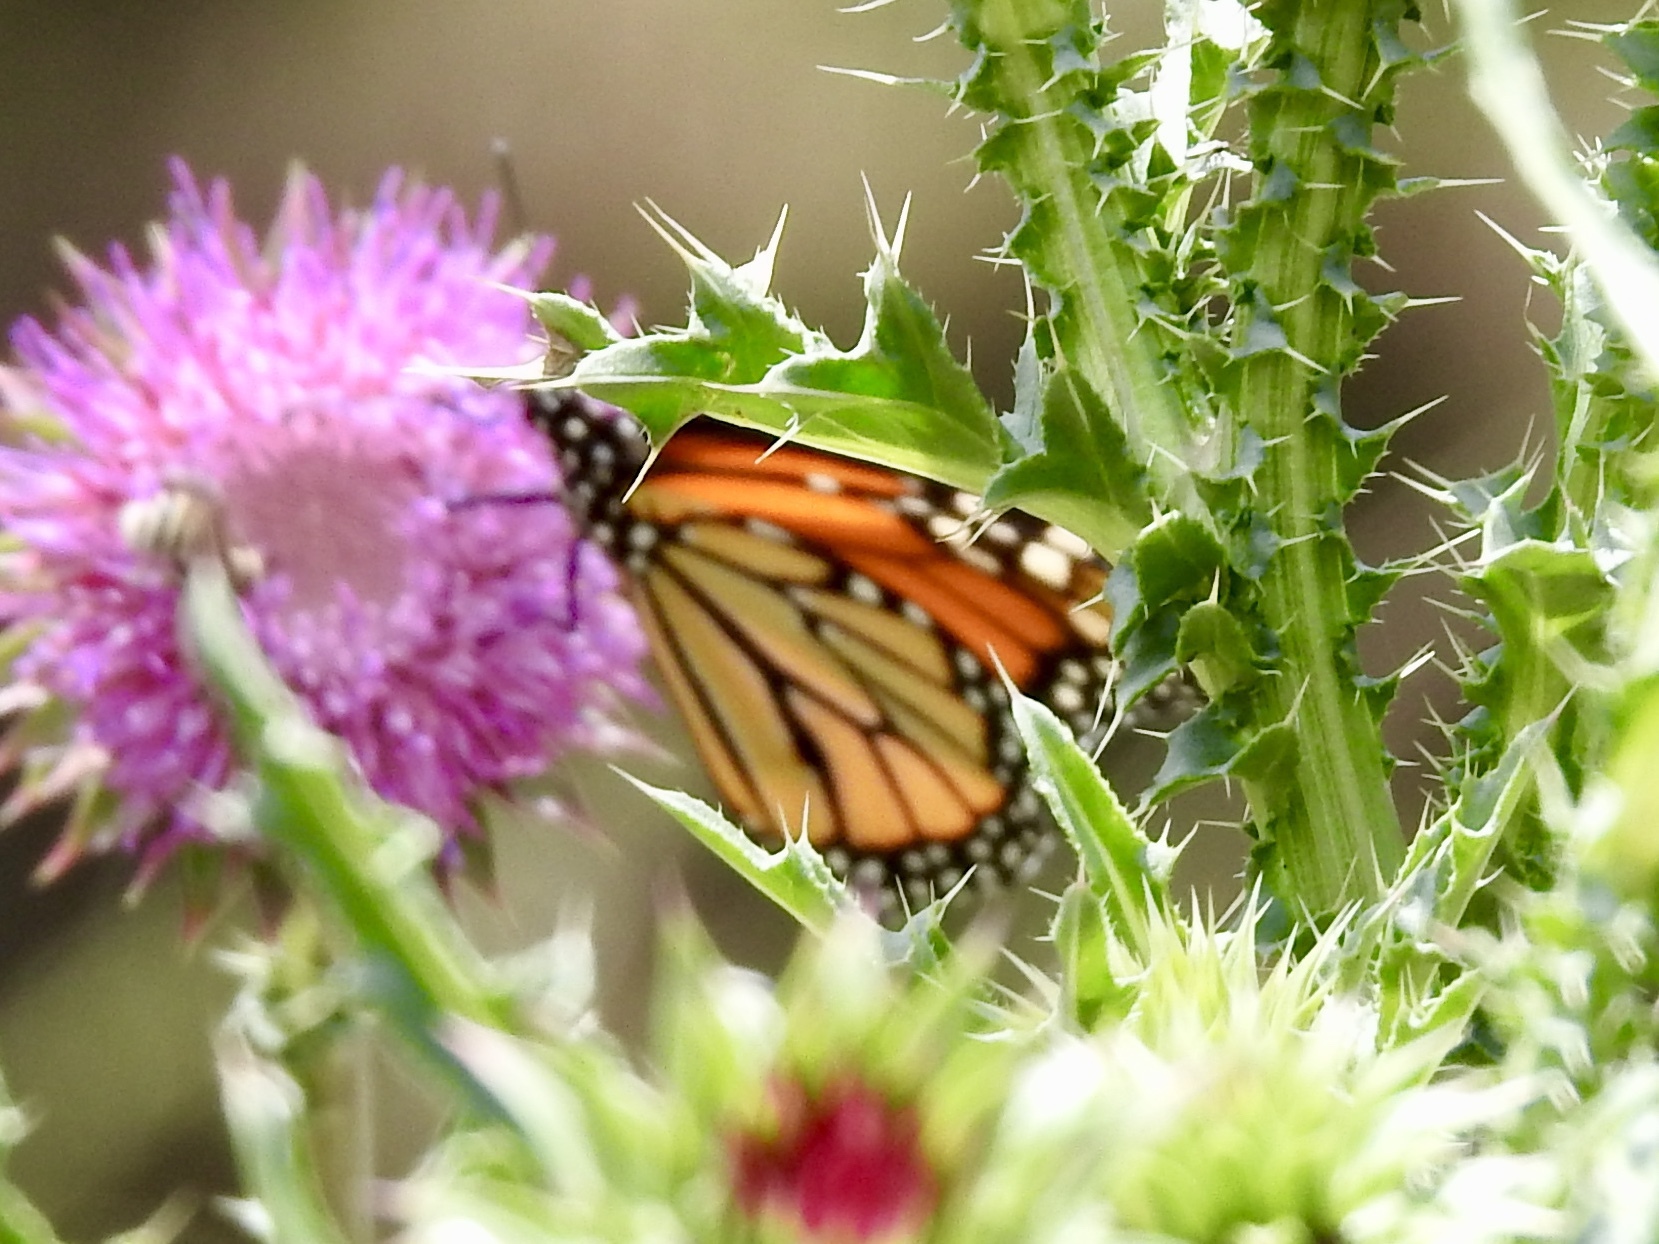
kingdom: Animalia
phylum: Arthropoda
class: Insecta
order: Lepidoptera
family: Nymphalidae
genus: Danaus
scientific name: Danaus plexippus
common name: Monarch
